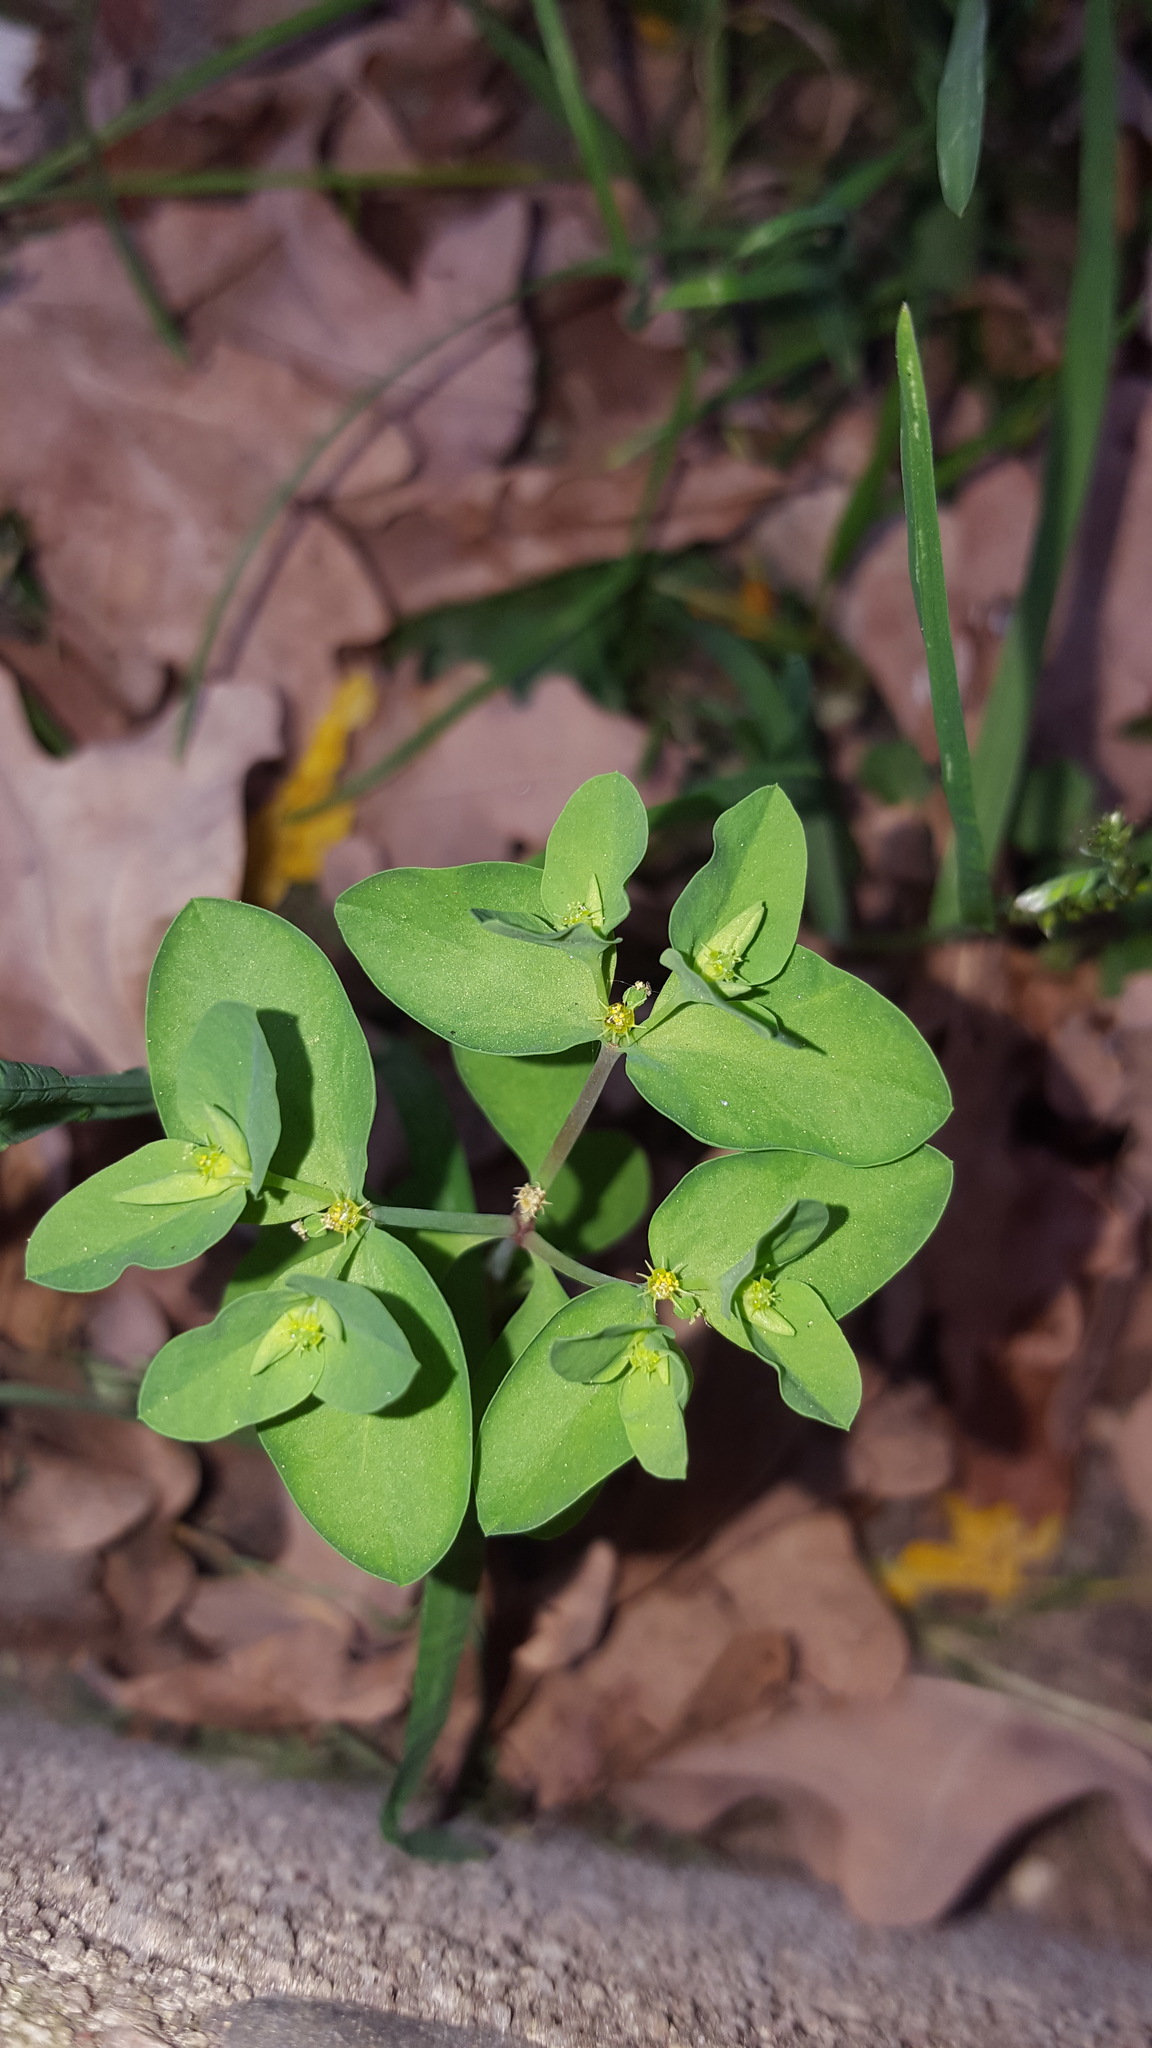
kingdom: Plantae
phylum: Tracheophyta
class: Magnoliopsida
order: Malpighiales
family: Euphorbiaceae
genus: Euphorbia
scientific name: Euphorbia peplus
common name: Petty spurge
